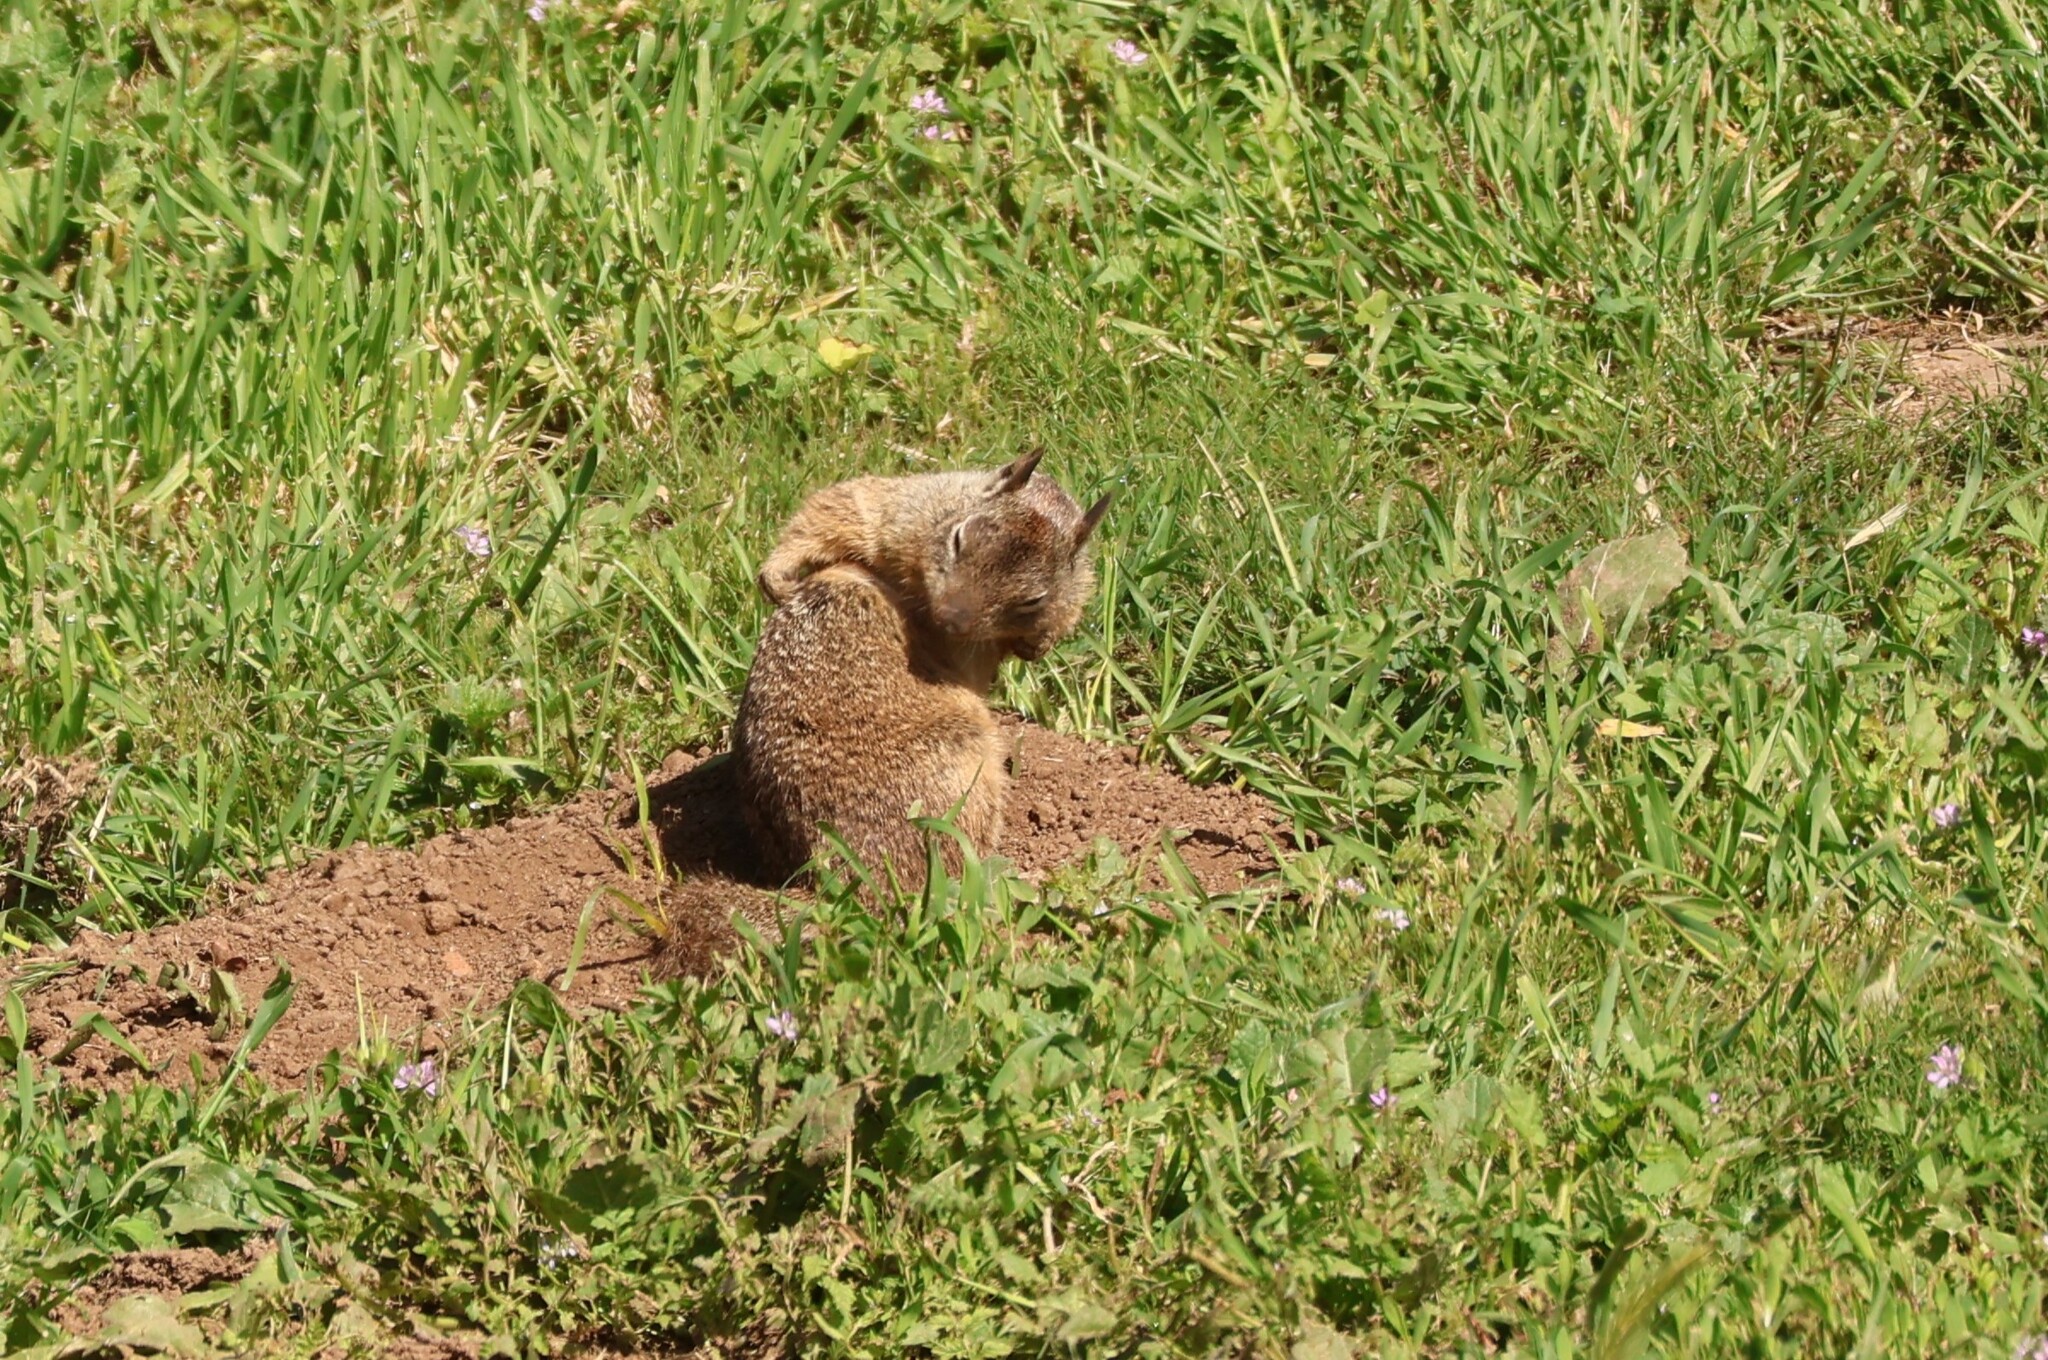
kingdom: Animalia
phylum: Chordata
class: Mammalia
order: Rodentia
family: Sciuridae
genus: Otospermophilus
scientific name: Otospermophilus beecheyi
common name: California ground squirrel
